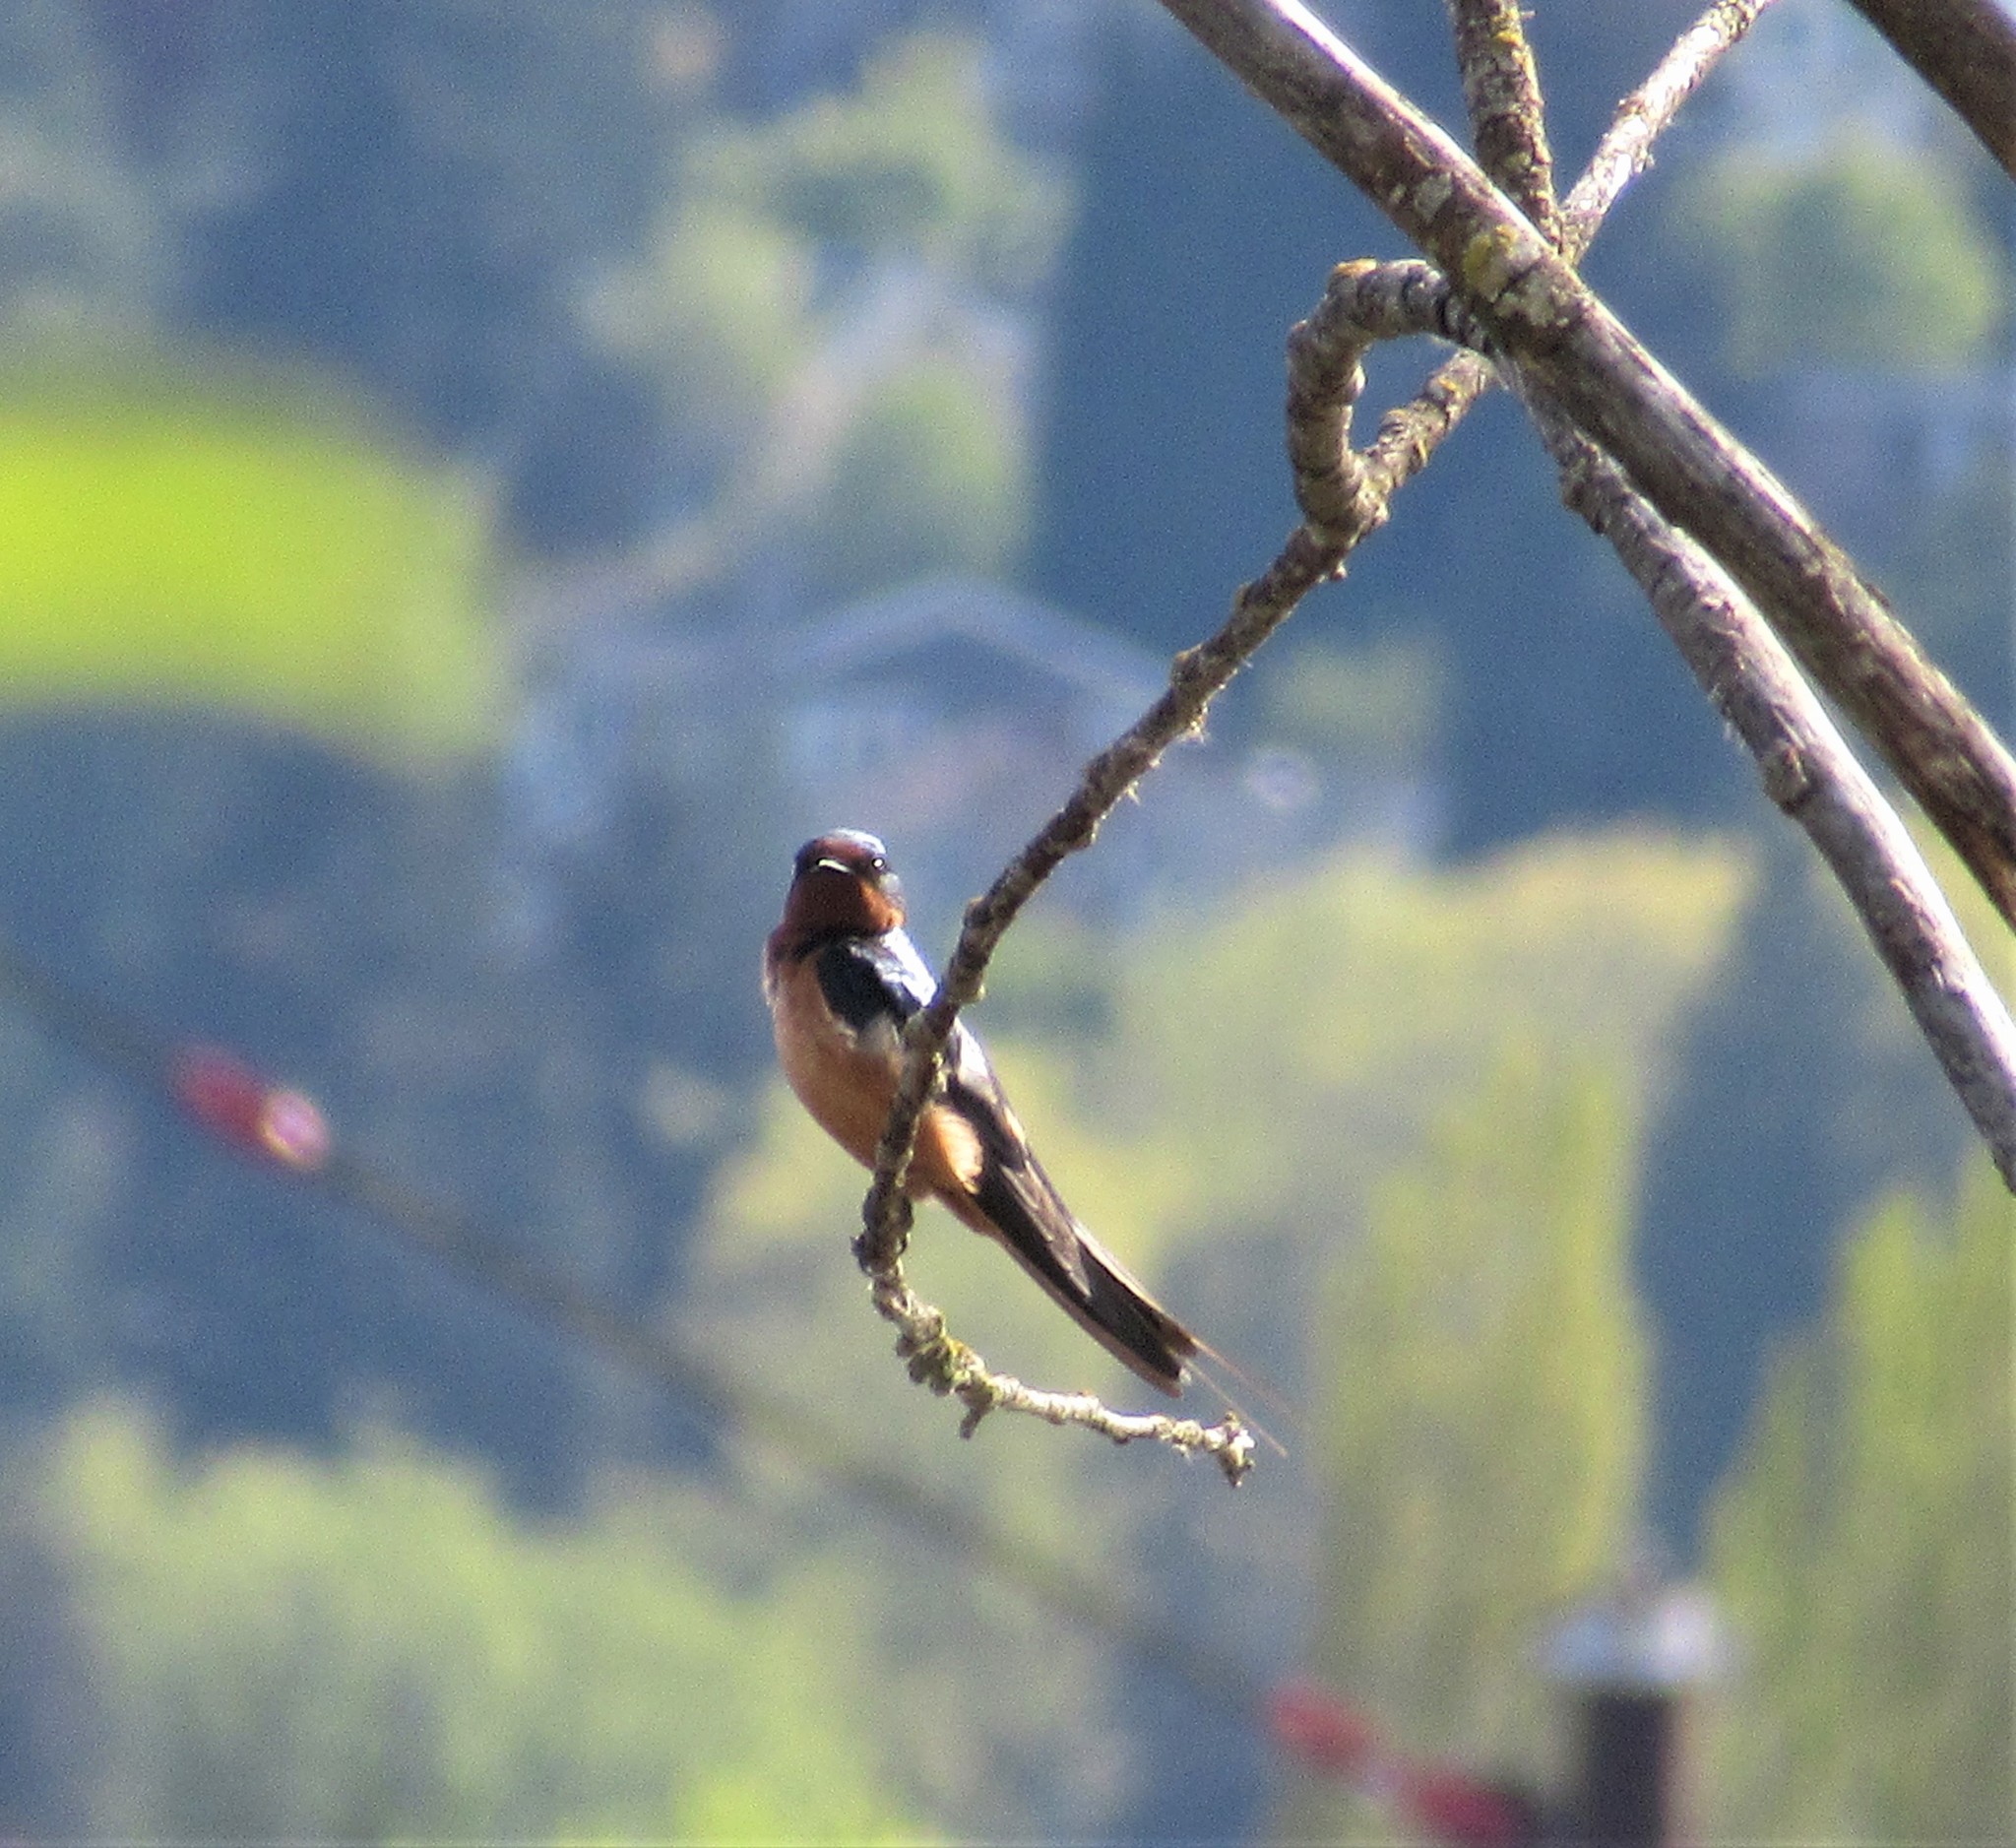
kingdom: Animalia
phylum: Chordata
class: Aves
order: Passeriformes
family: Hirundinidae
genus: Hirundo
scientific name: Hirundo rustica
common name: Barn swallow
